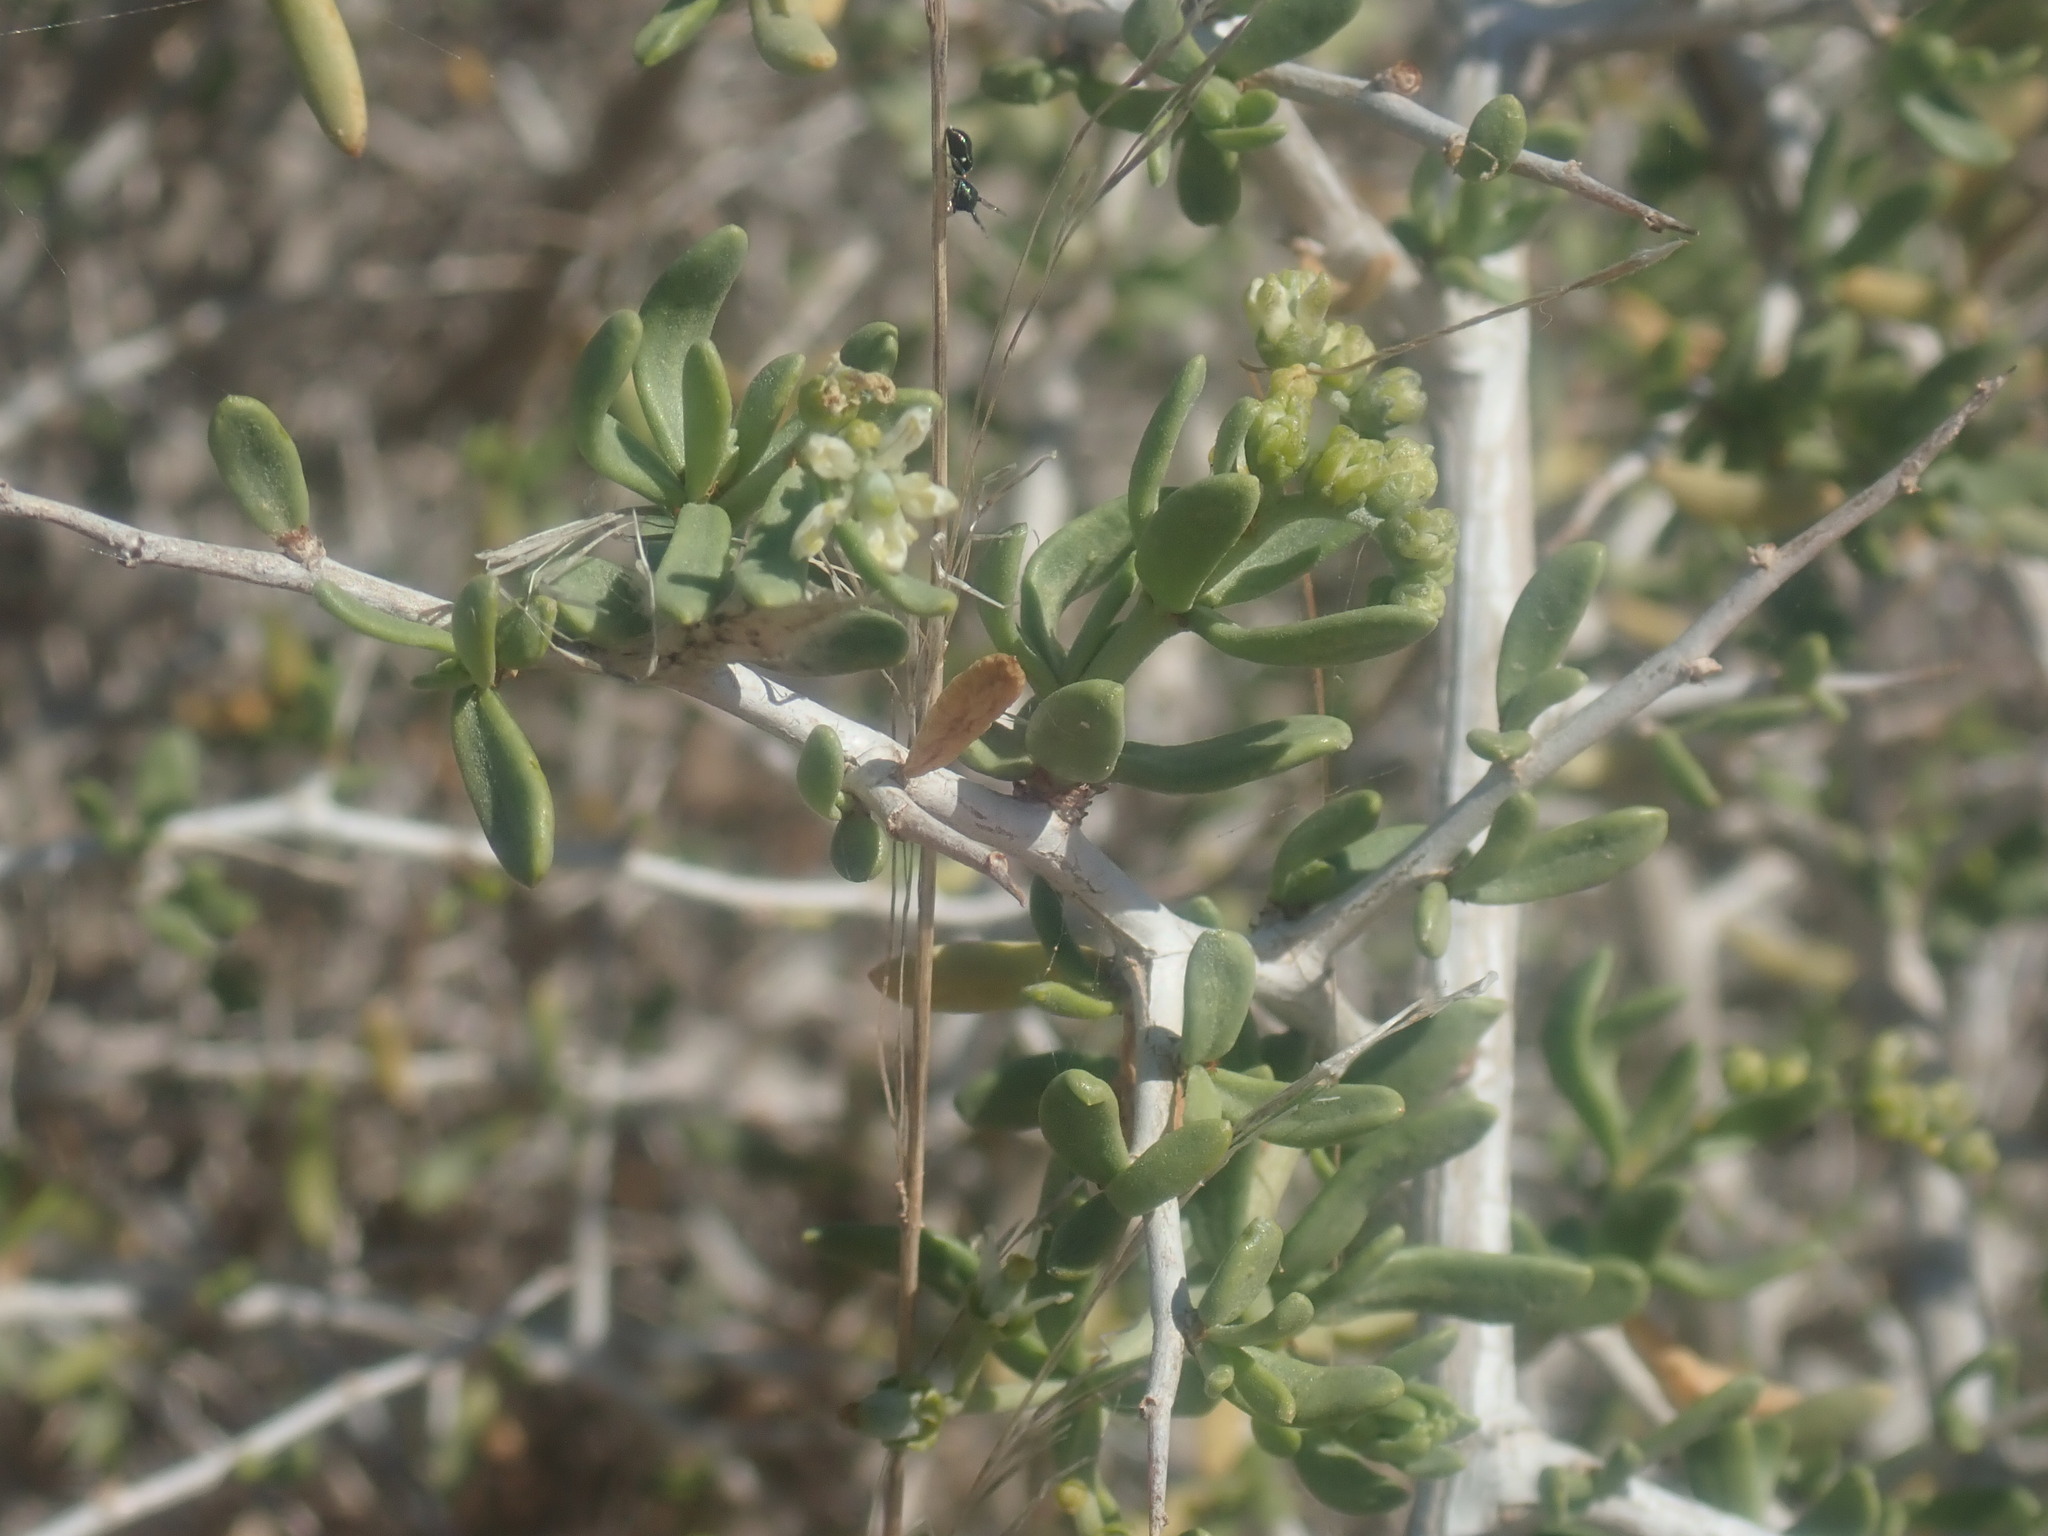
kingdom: Plantae
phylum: Tracheophyta
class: Magnoliopsida
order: Sapindales
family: Nitrariaceae
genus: Nitraria
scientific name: Nitraria billardierei
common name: Dillonbush
